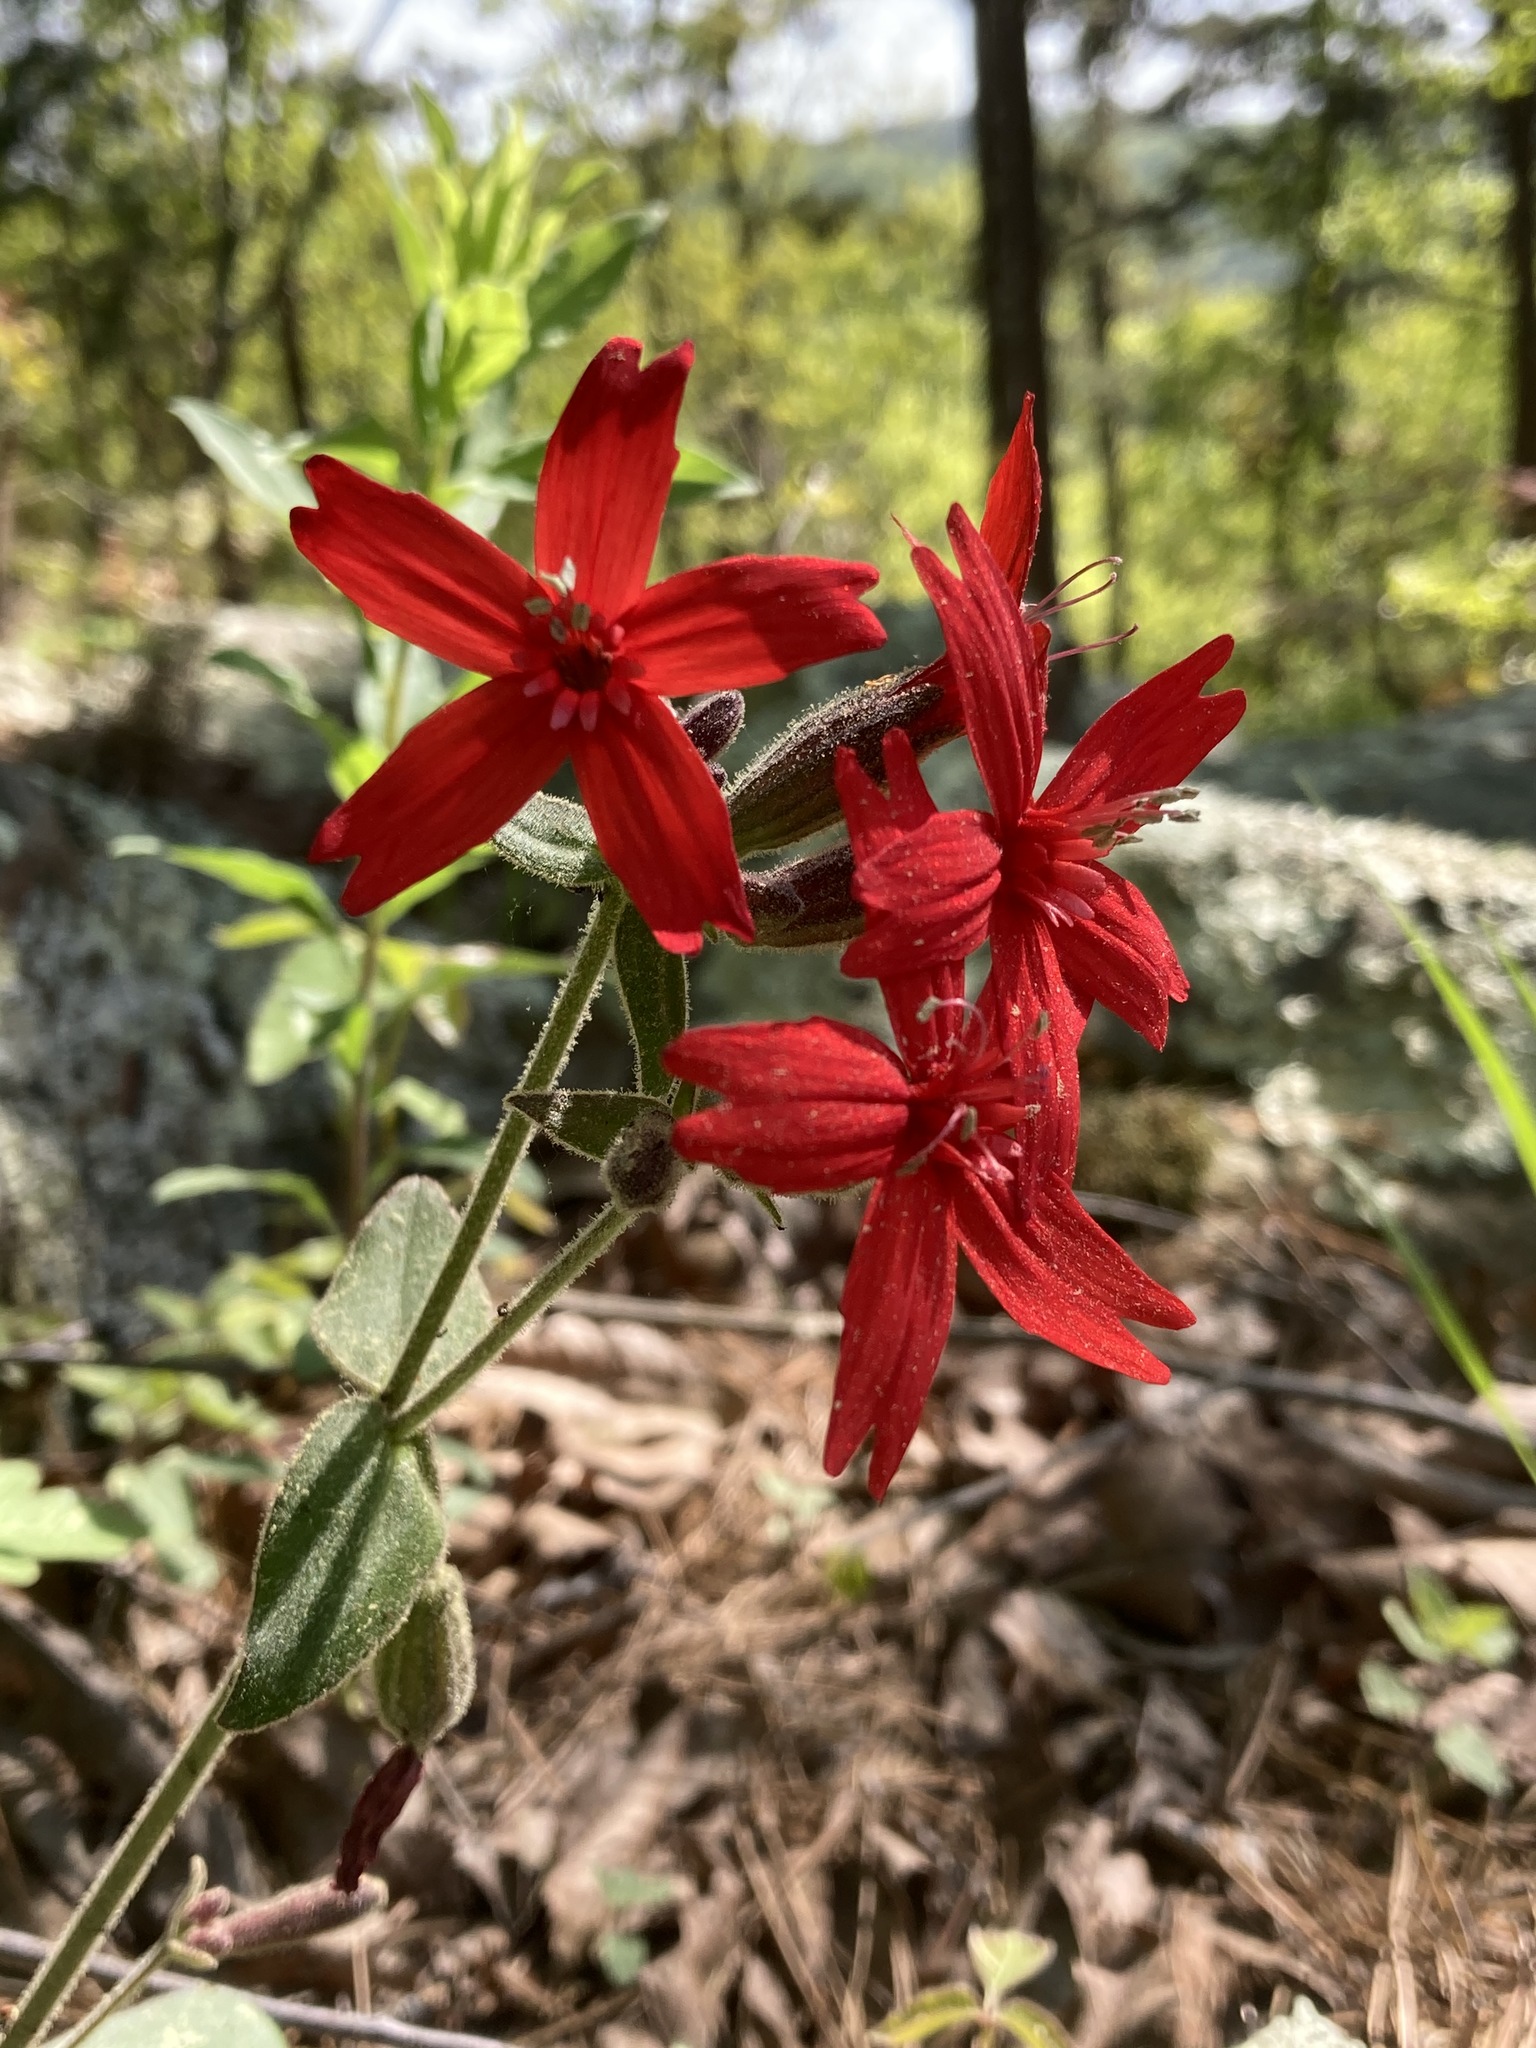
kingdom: Plantae
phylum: Tracheophyta
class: Magnoliopsida
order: Caryophyllales
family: Caryophyllaceae
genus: Silene
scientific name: Silene virginica
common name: Fire-pink
